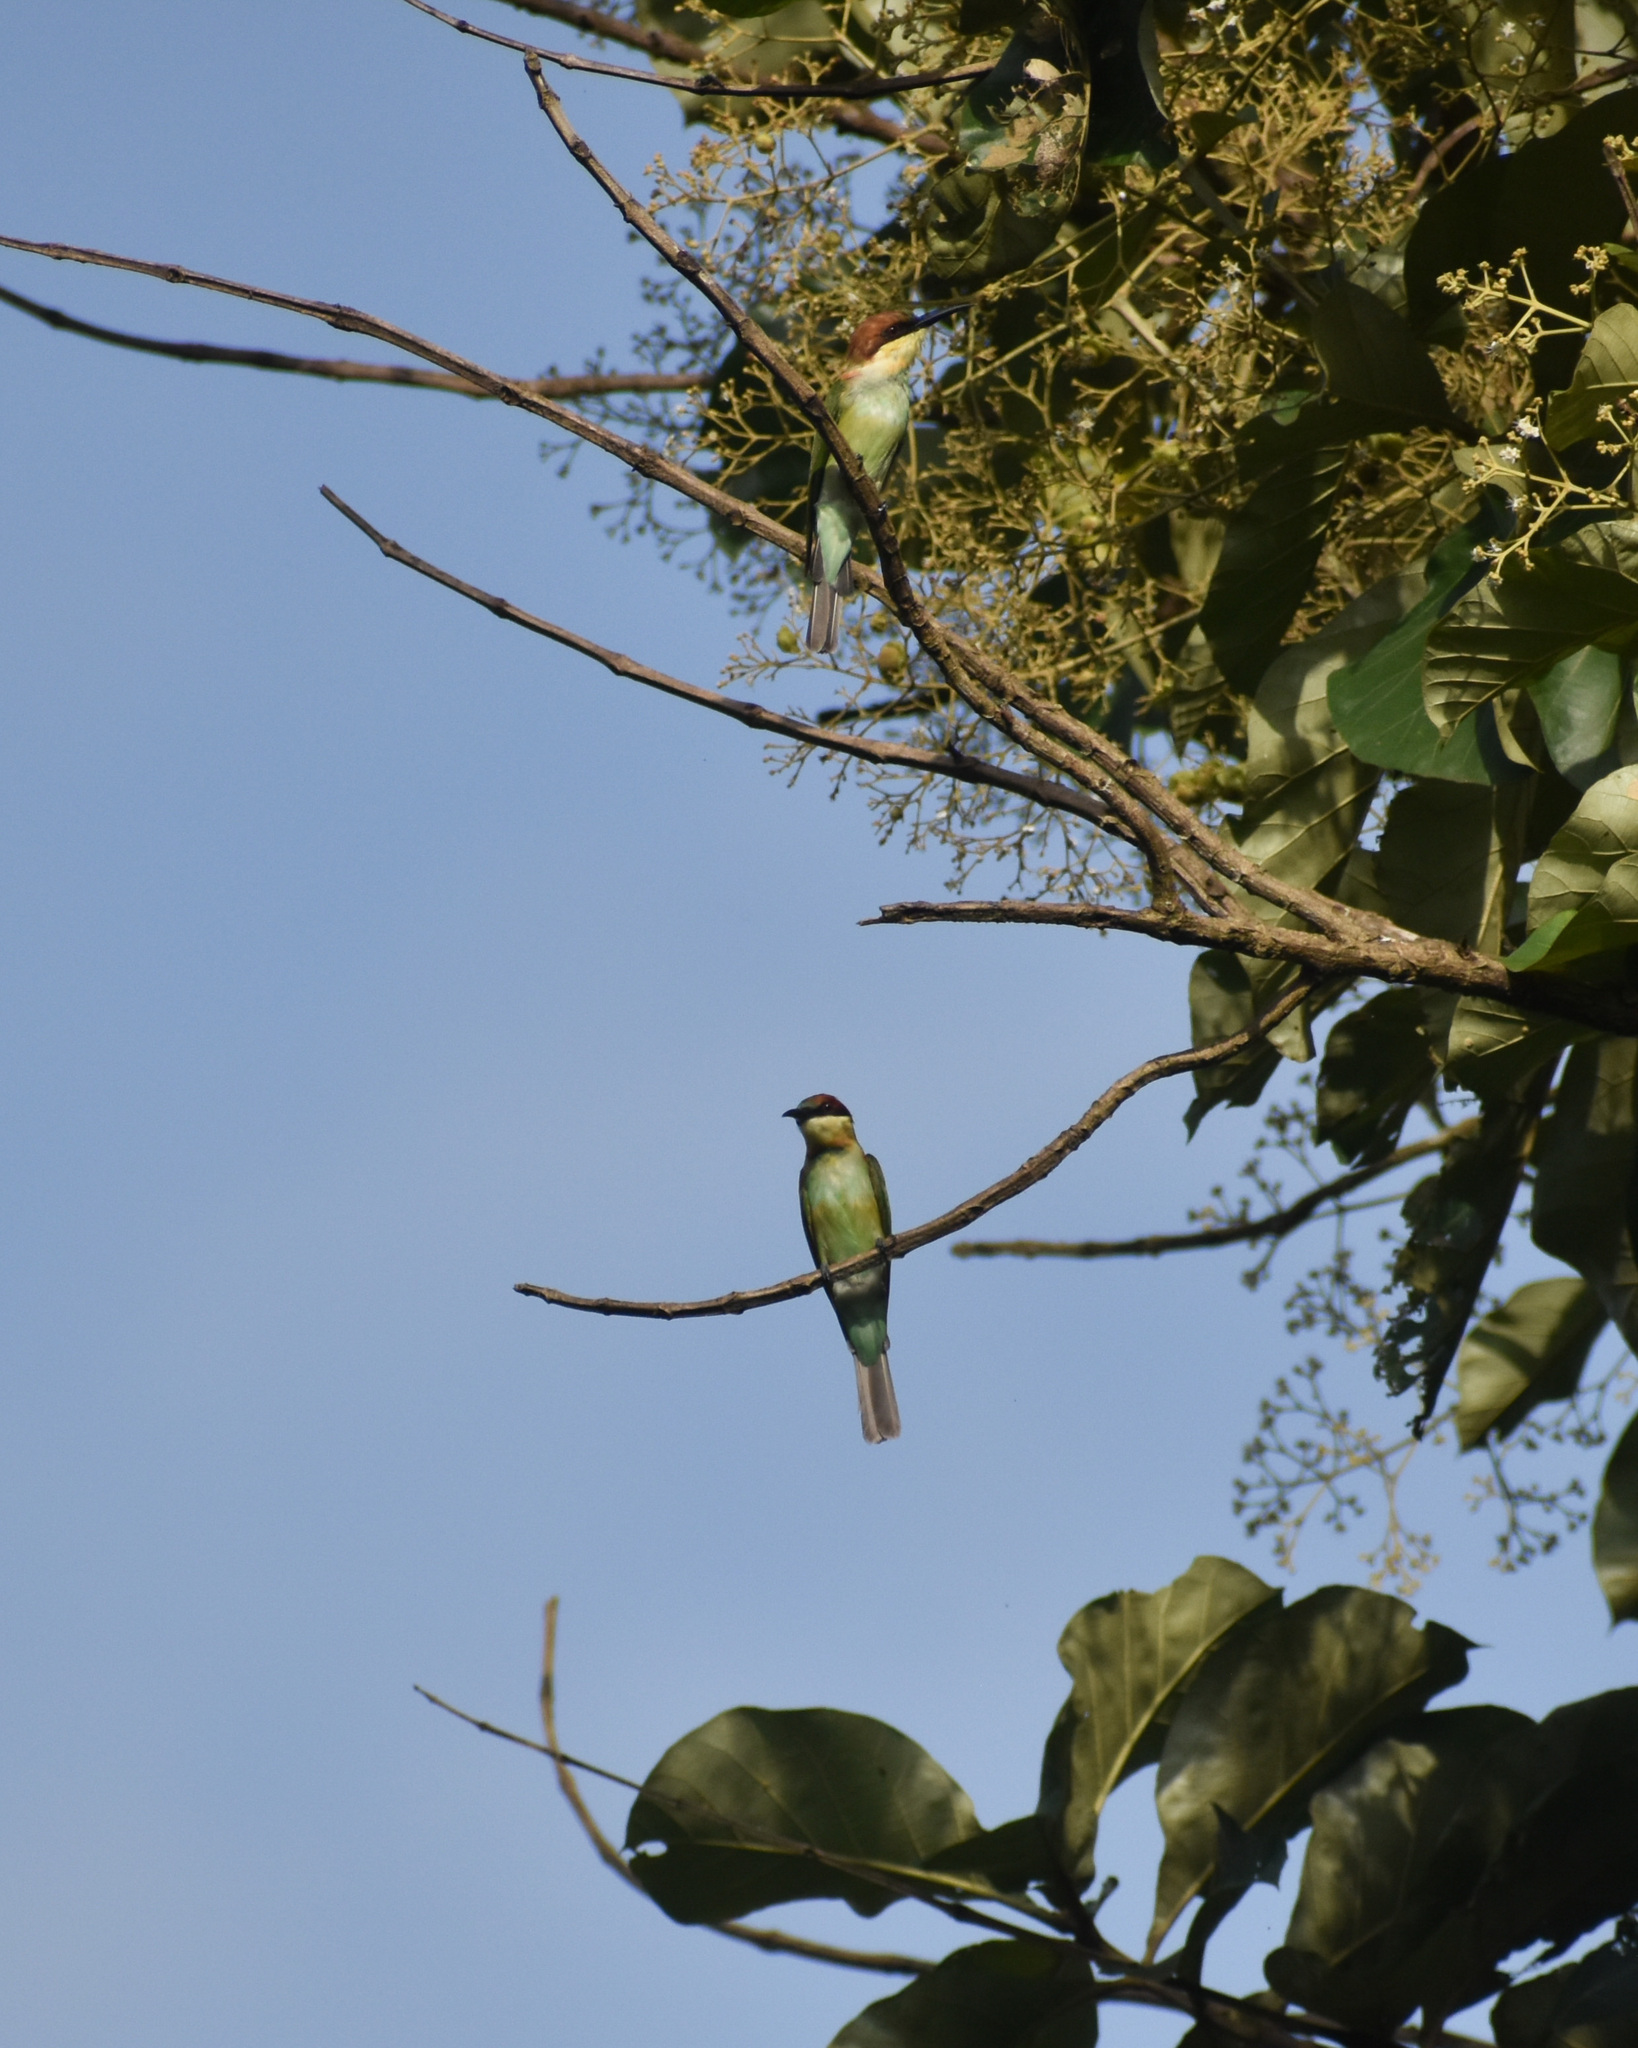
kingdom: Animalia
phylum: Chordata
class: Aves
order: Coraciiformes
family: Meropidae
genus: Merops
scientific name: Merops leschenaulti
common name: Chestnut-headed bee-eater
